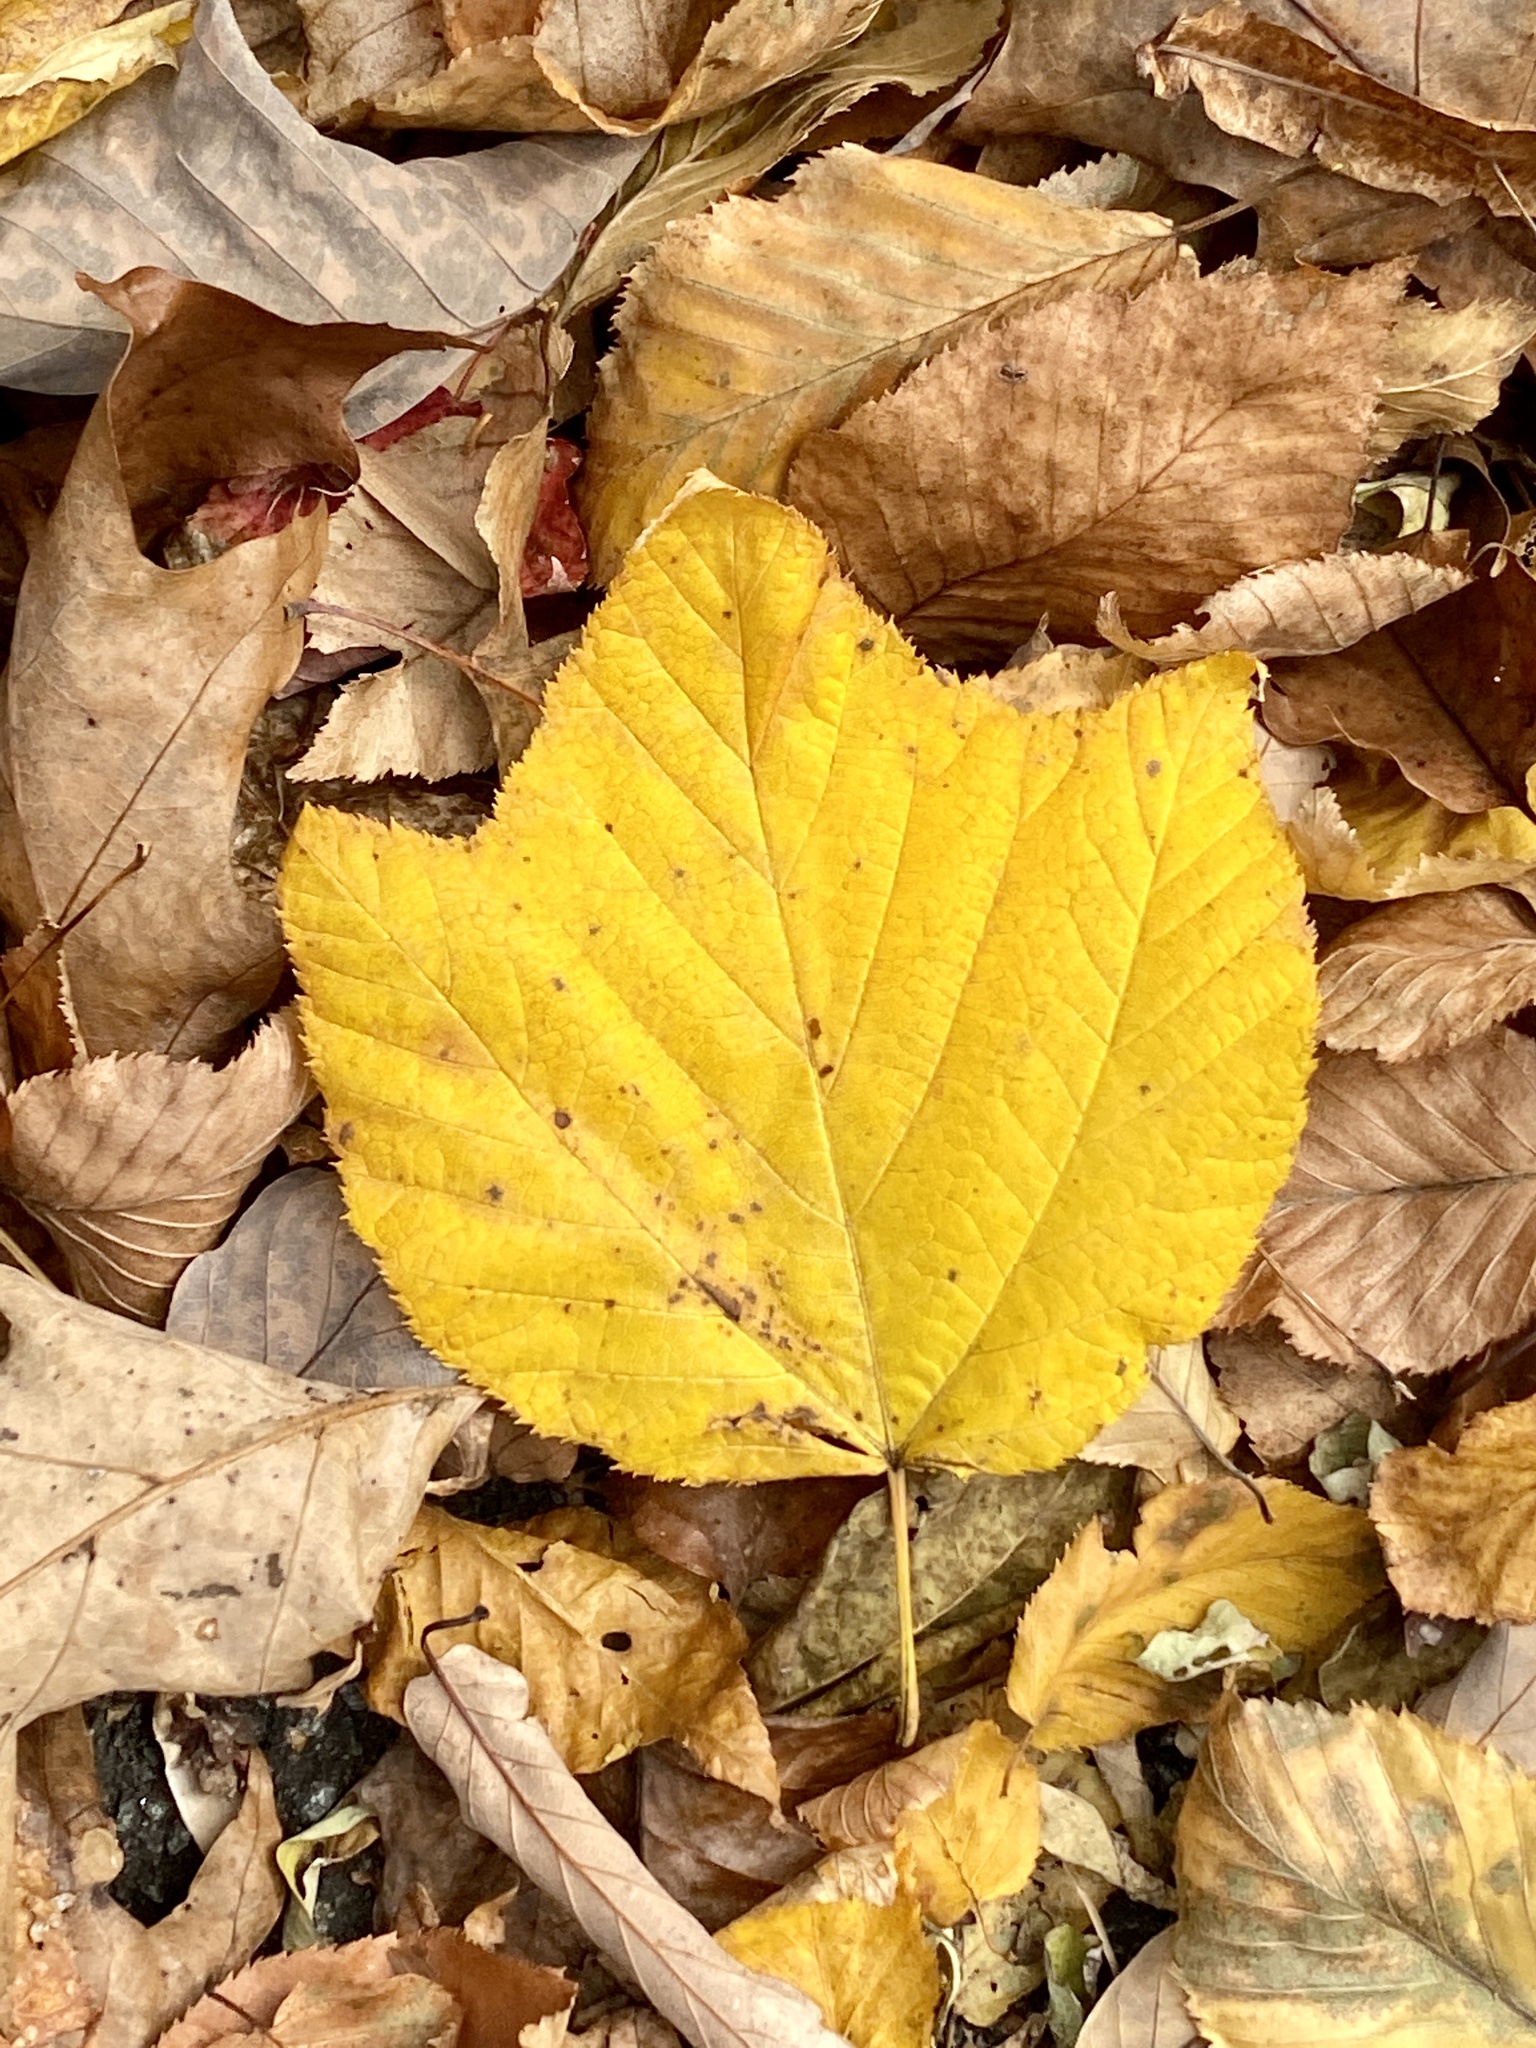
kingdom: Plantae
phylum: Tracheophyta
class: Magnoliopsida
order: Sapindales
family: Sapindaceae
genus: Acer
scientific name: Acer pensylvanicum
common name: Moosewood
